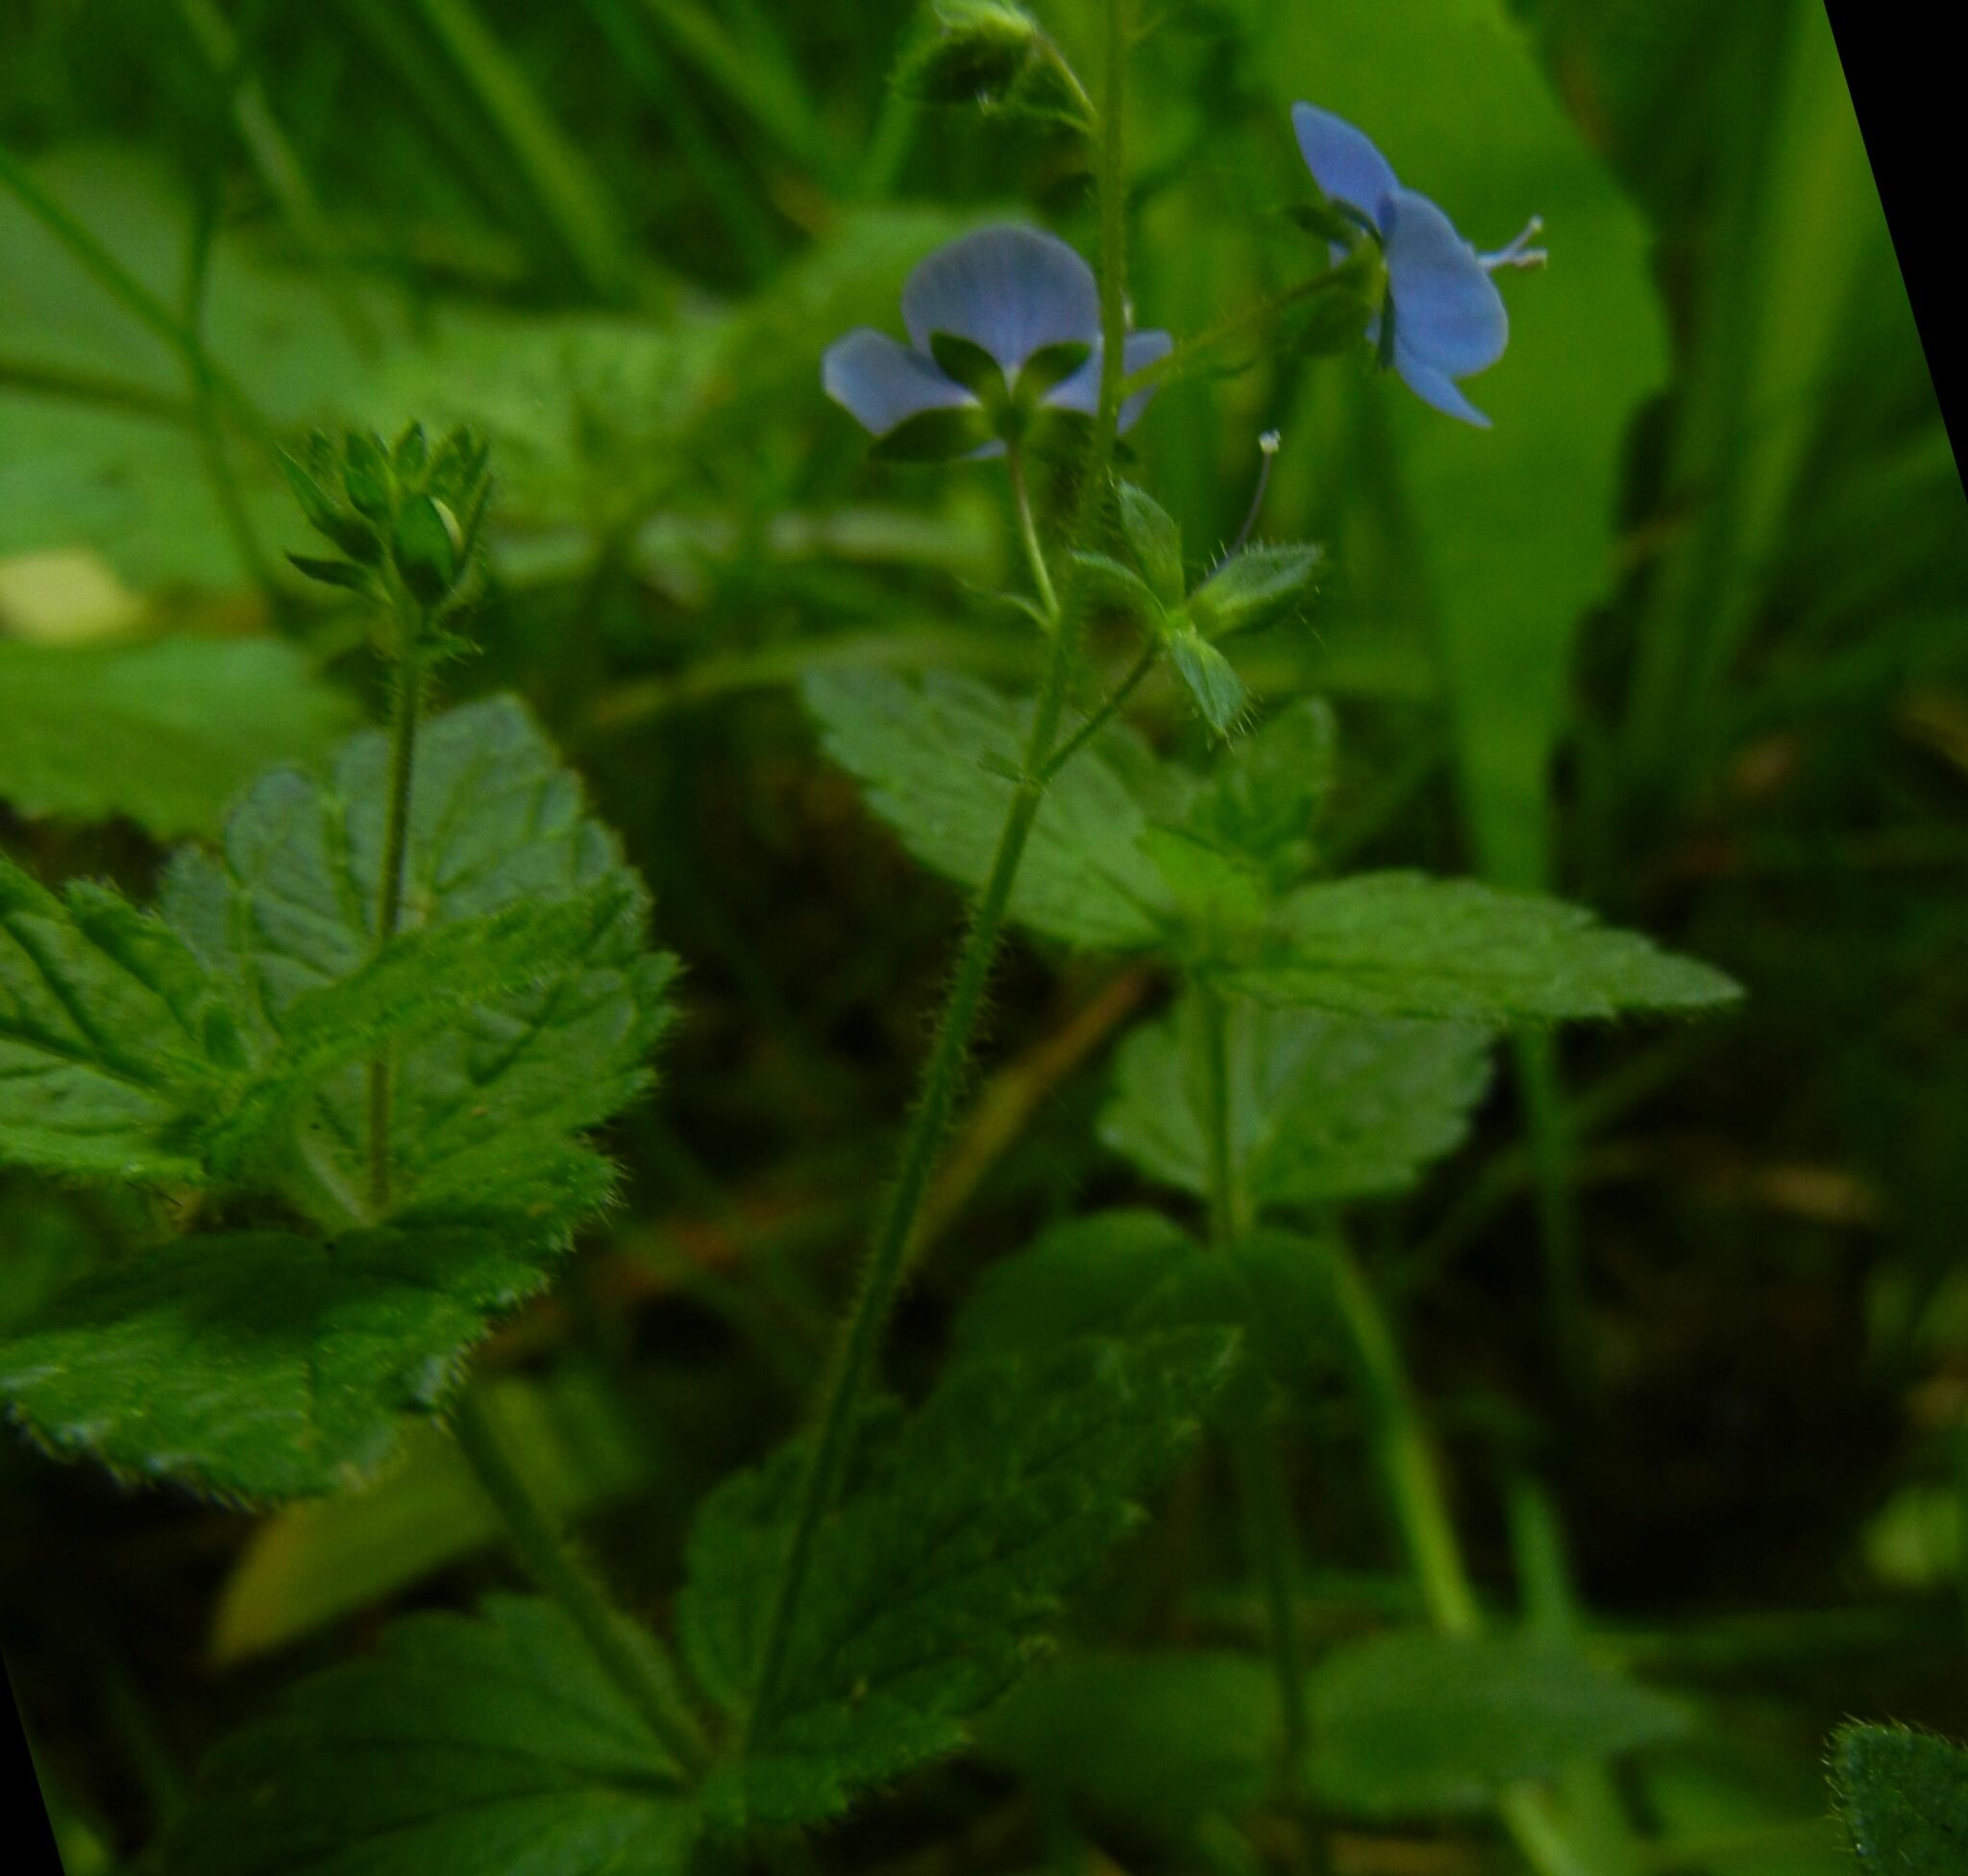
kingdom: Plantae
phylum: Tracheophyta
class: Magnoliopsida
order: Lamiales
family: Plantaginaceae
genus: Veronica
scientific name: Veronica chamaedrys
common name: Germander speedwell
